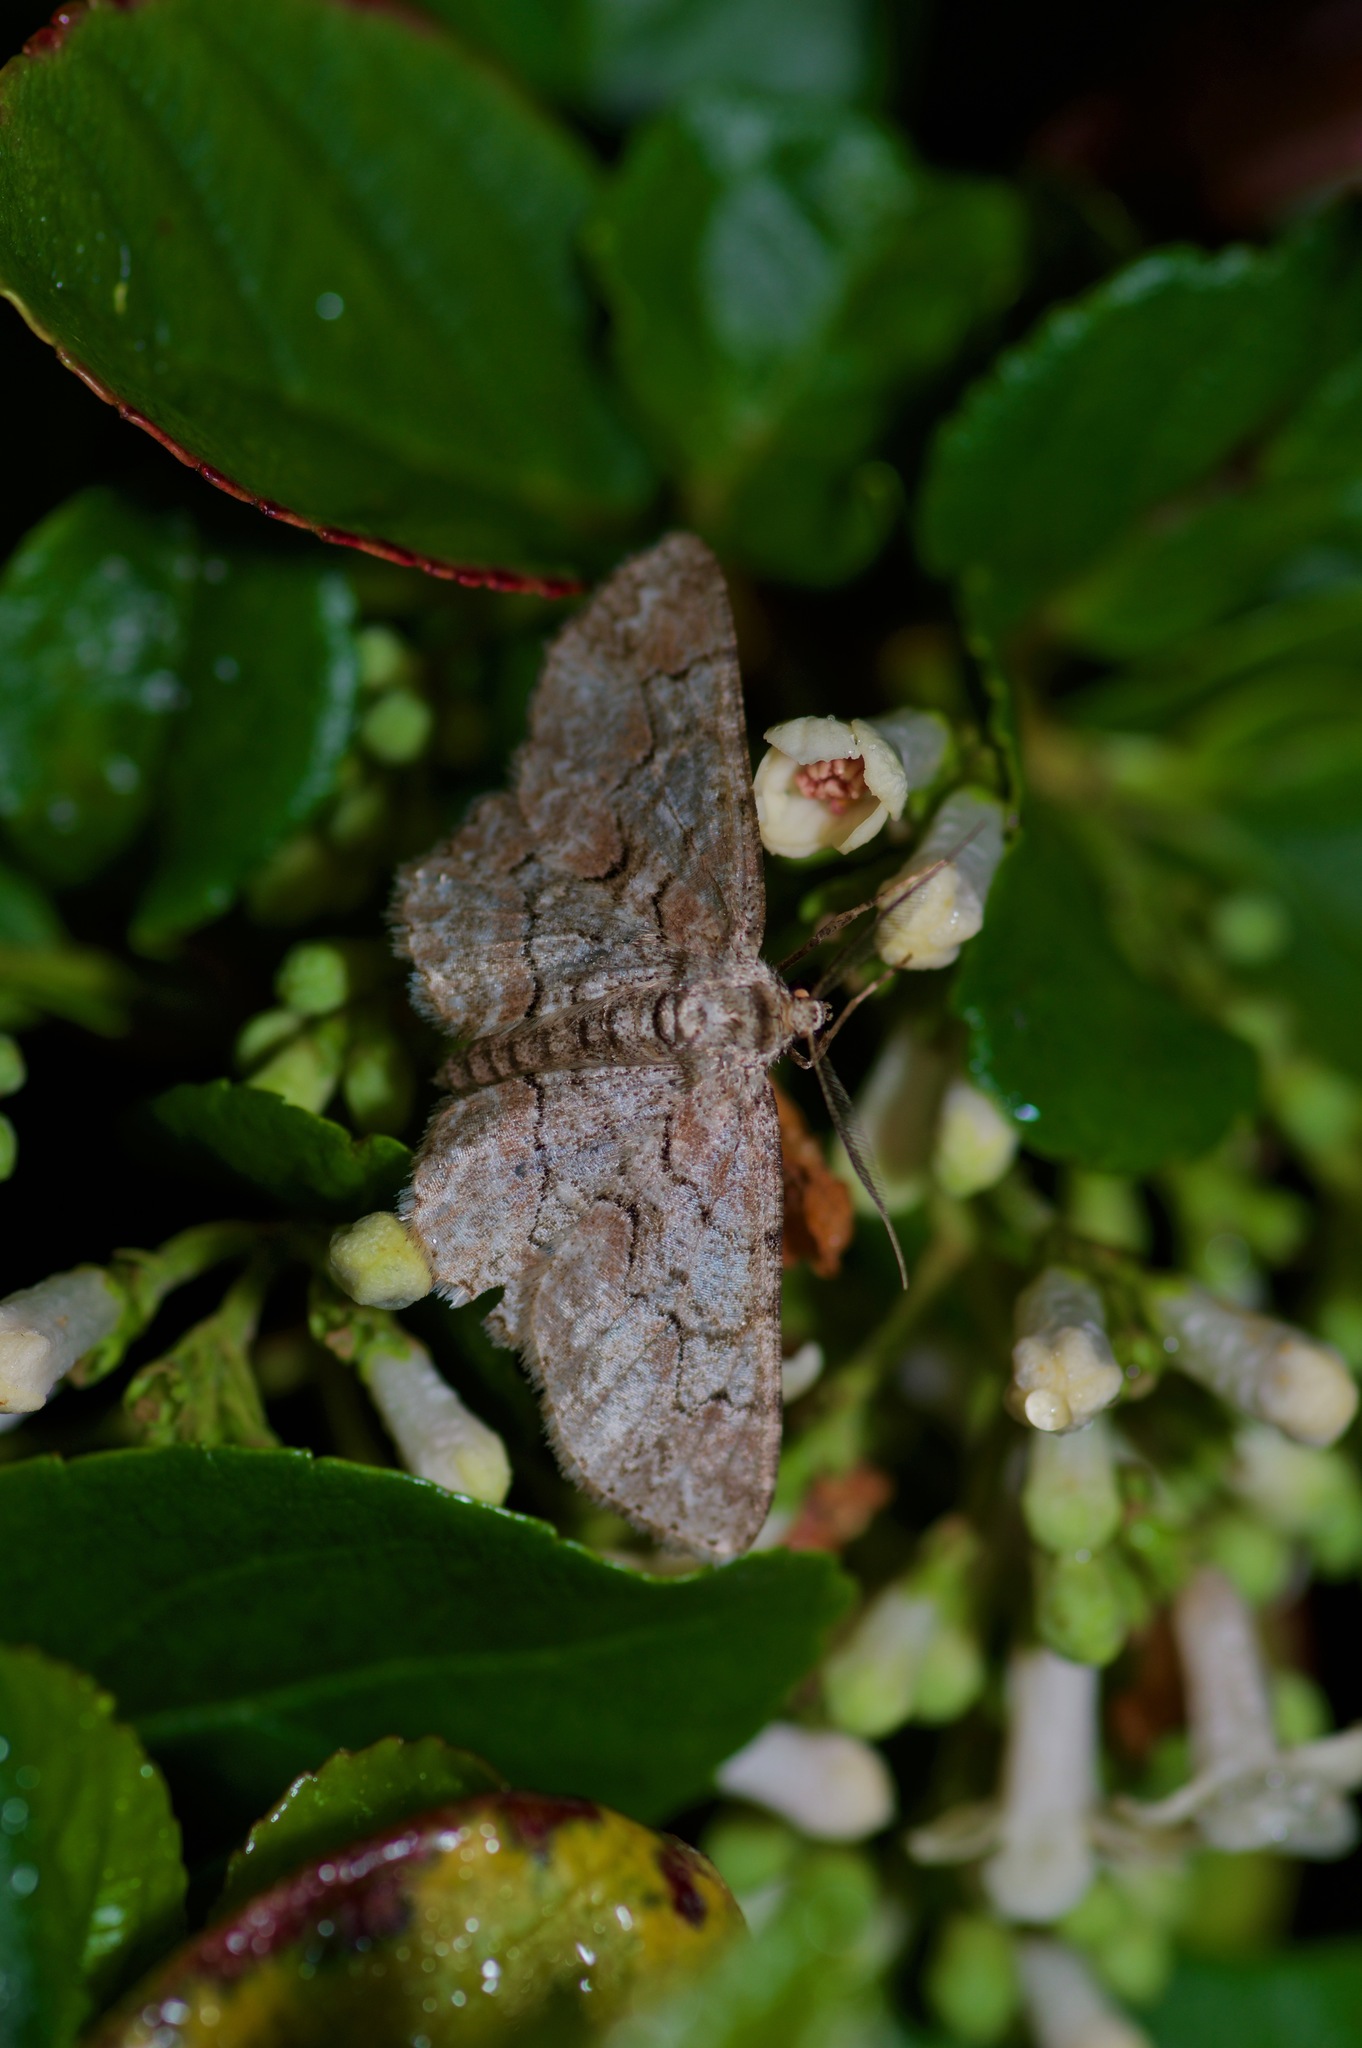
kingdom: Animalia
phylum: Arthropoda
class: Insecta
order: Lepidoptera
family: Geometridae
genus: Iridopsis
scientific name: Iridopsis defectaria
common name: Brown-shaded gray
